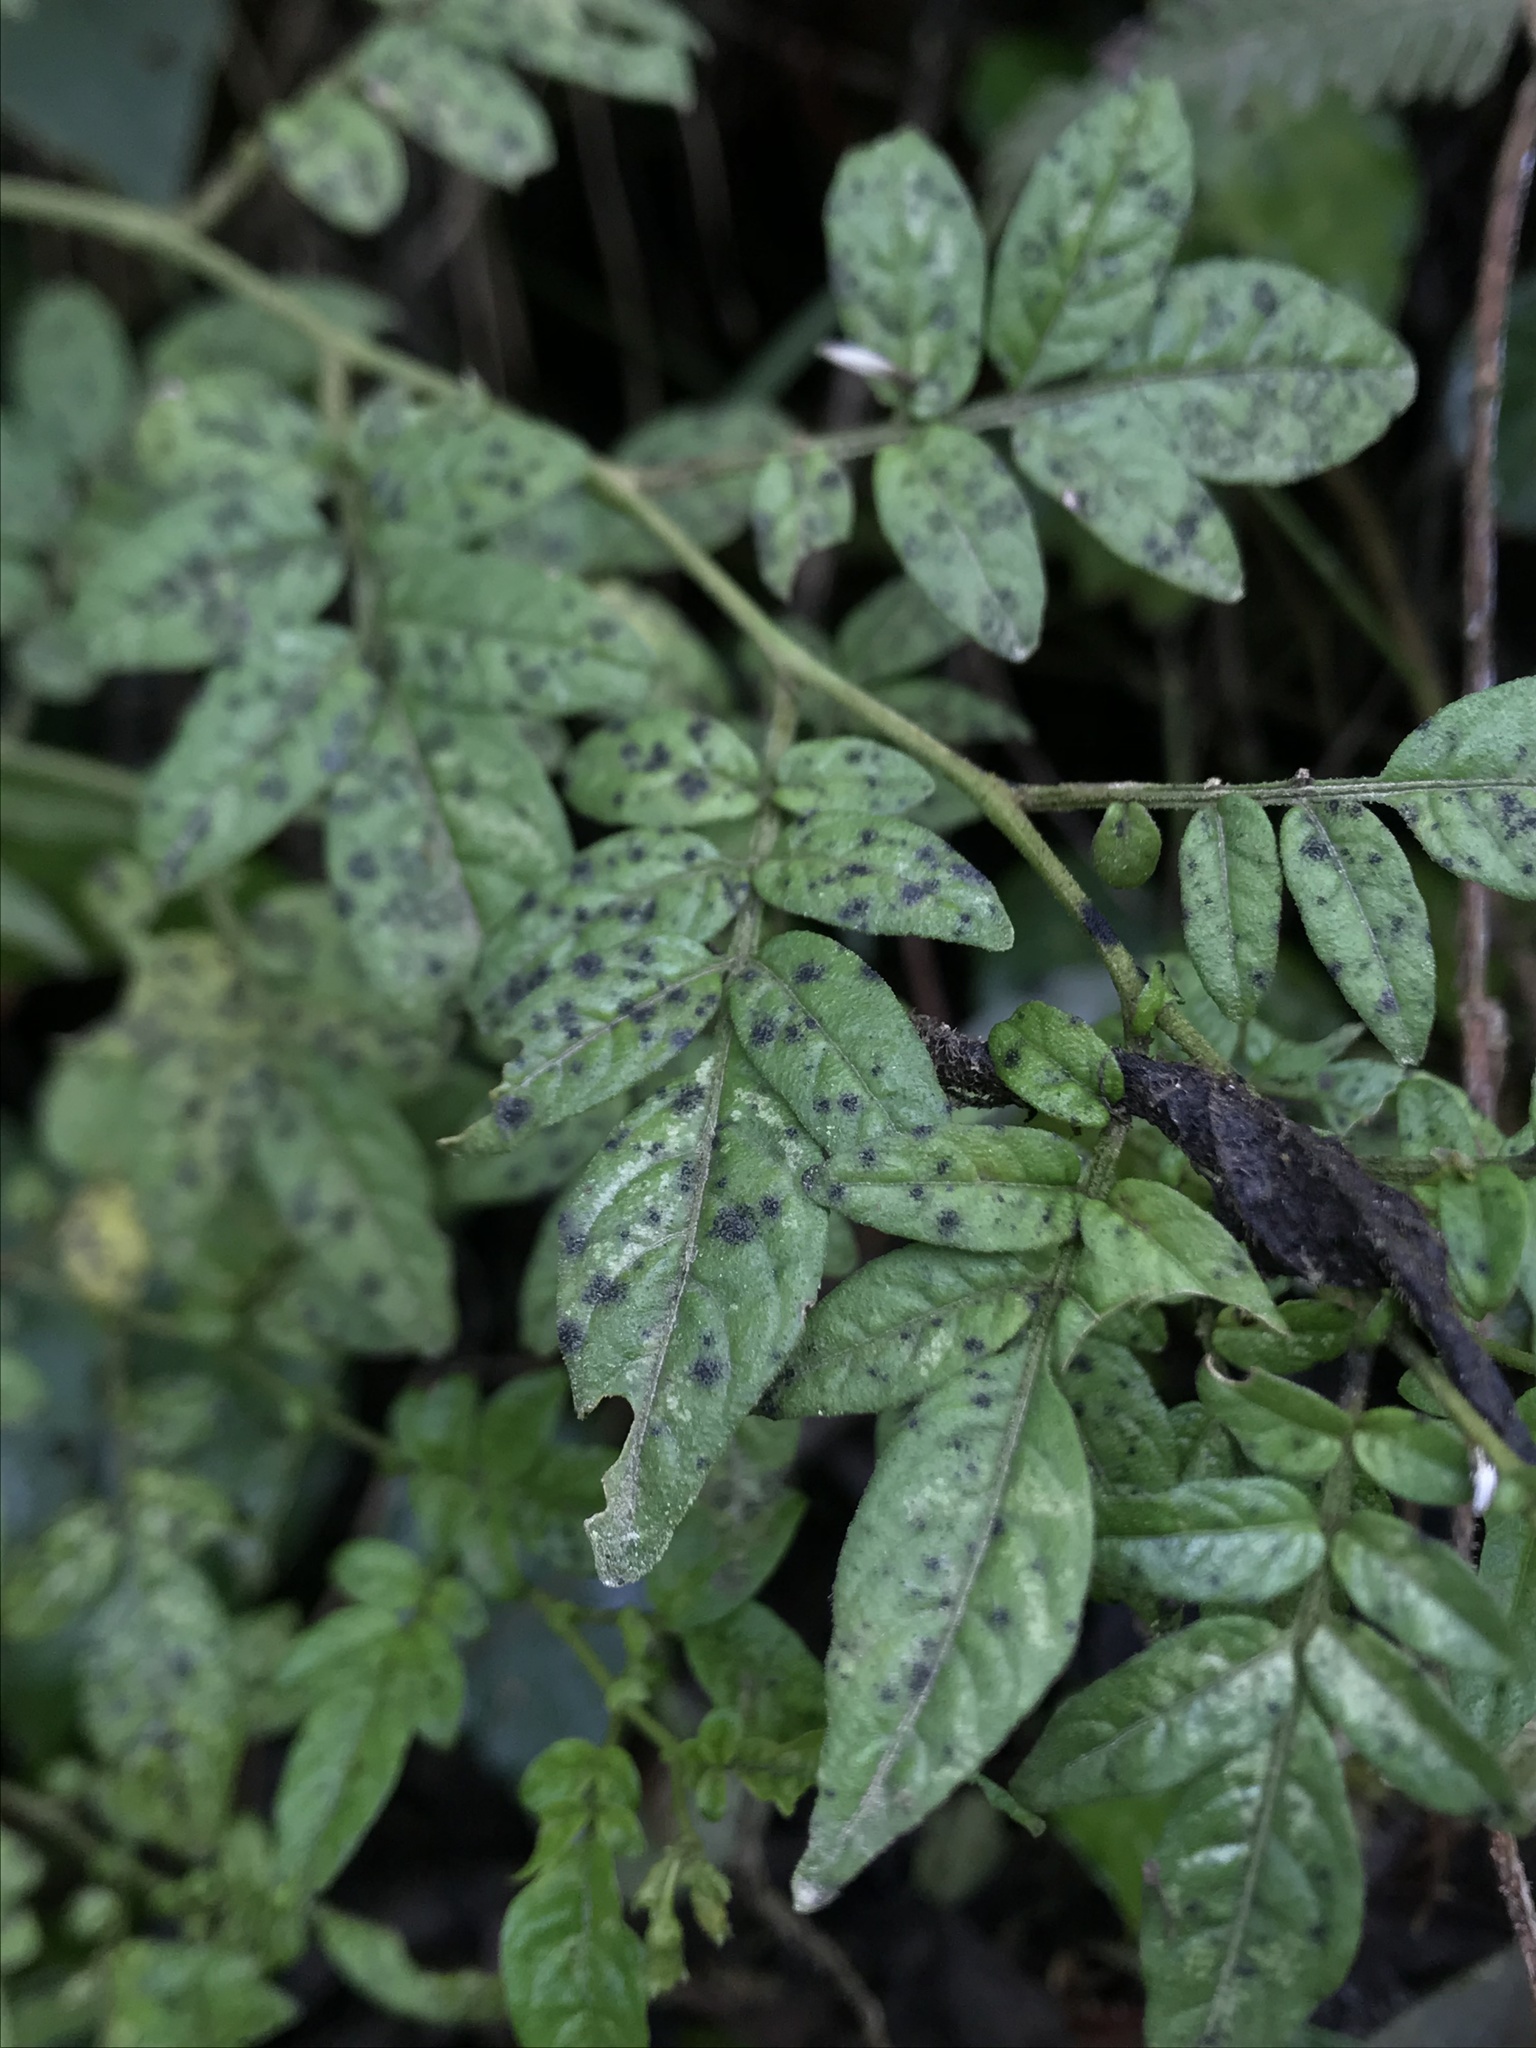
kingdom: Plantae
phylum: Tracheophyta
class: Magnoliopsida
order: Solanales
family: Solanaceae
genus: Solanum
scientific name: Solanum sodiroi
